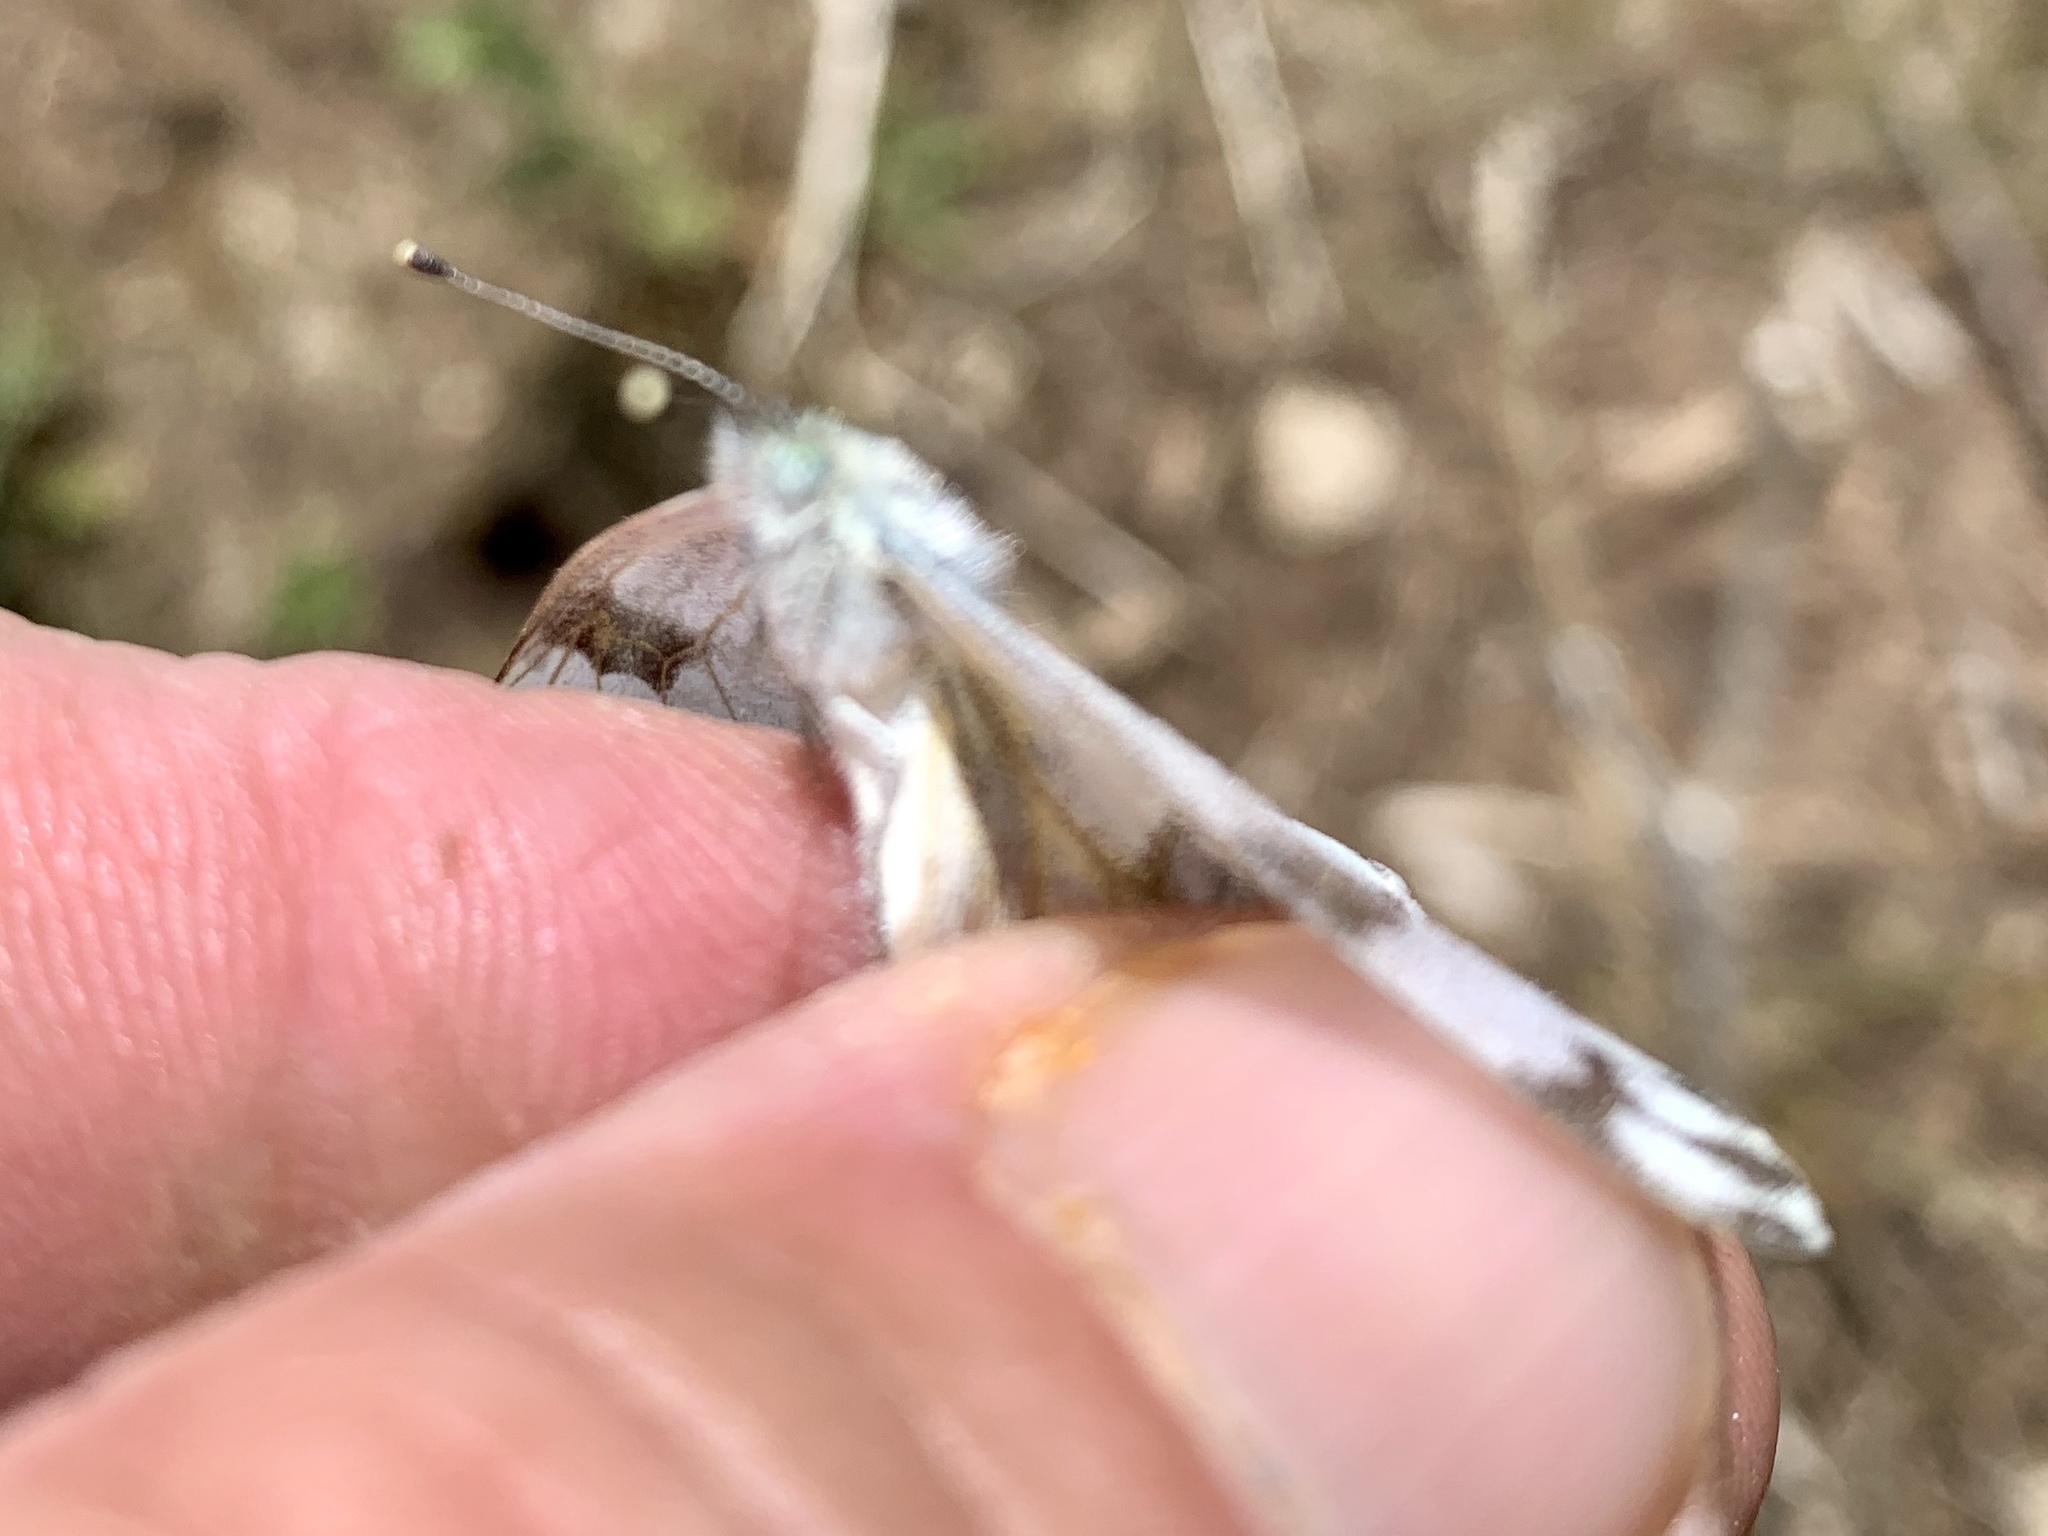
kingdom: Animalia
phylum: Arthropoda
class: Insecta
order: Lepidoptera
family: Pieridae
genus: Pontia
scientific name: Pontia protodice
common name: Checkered white
